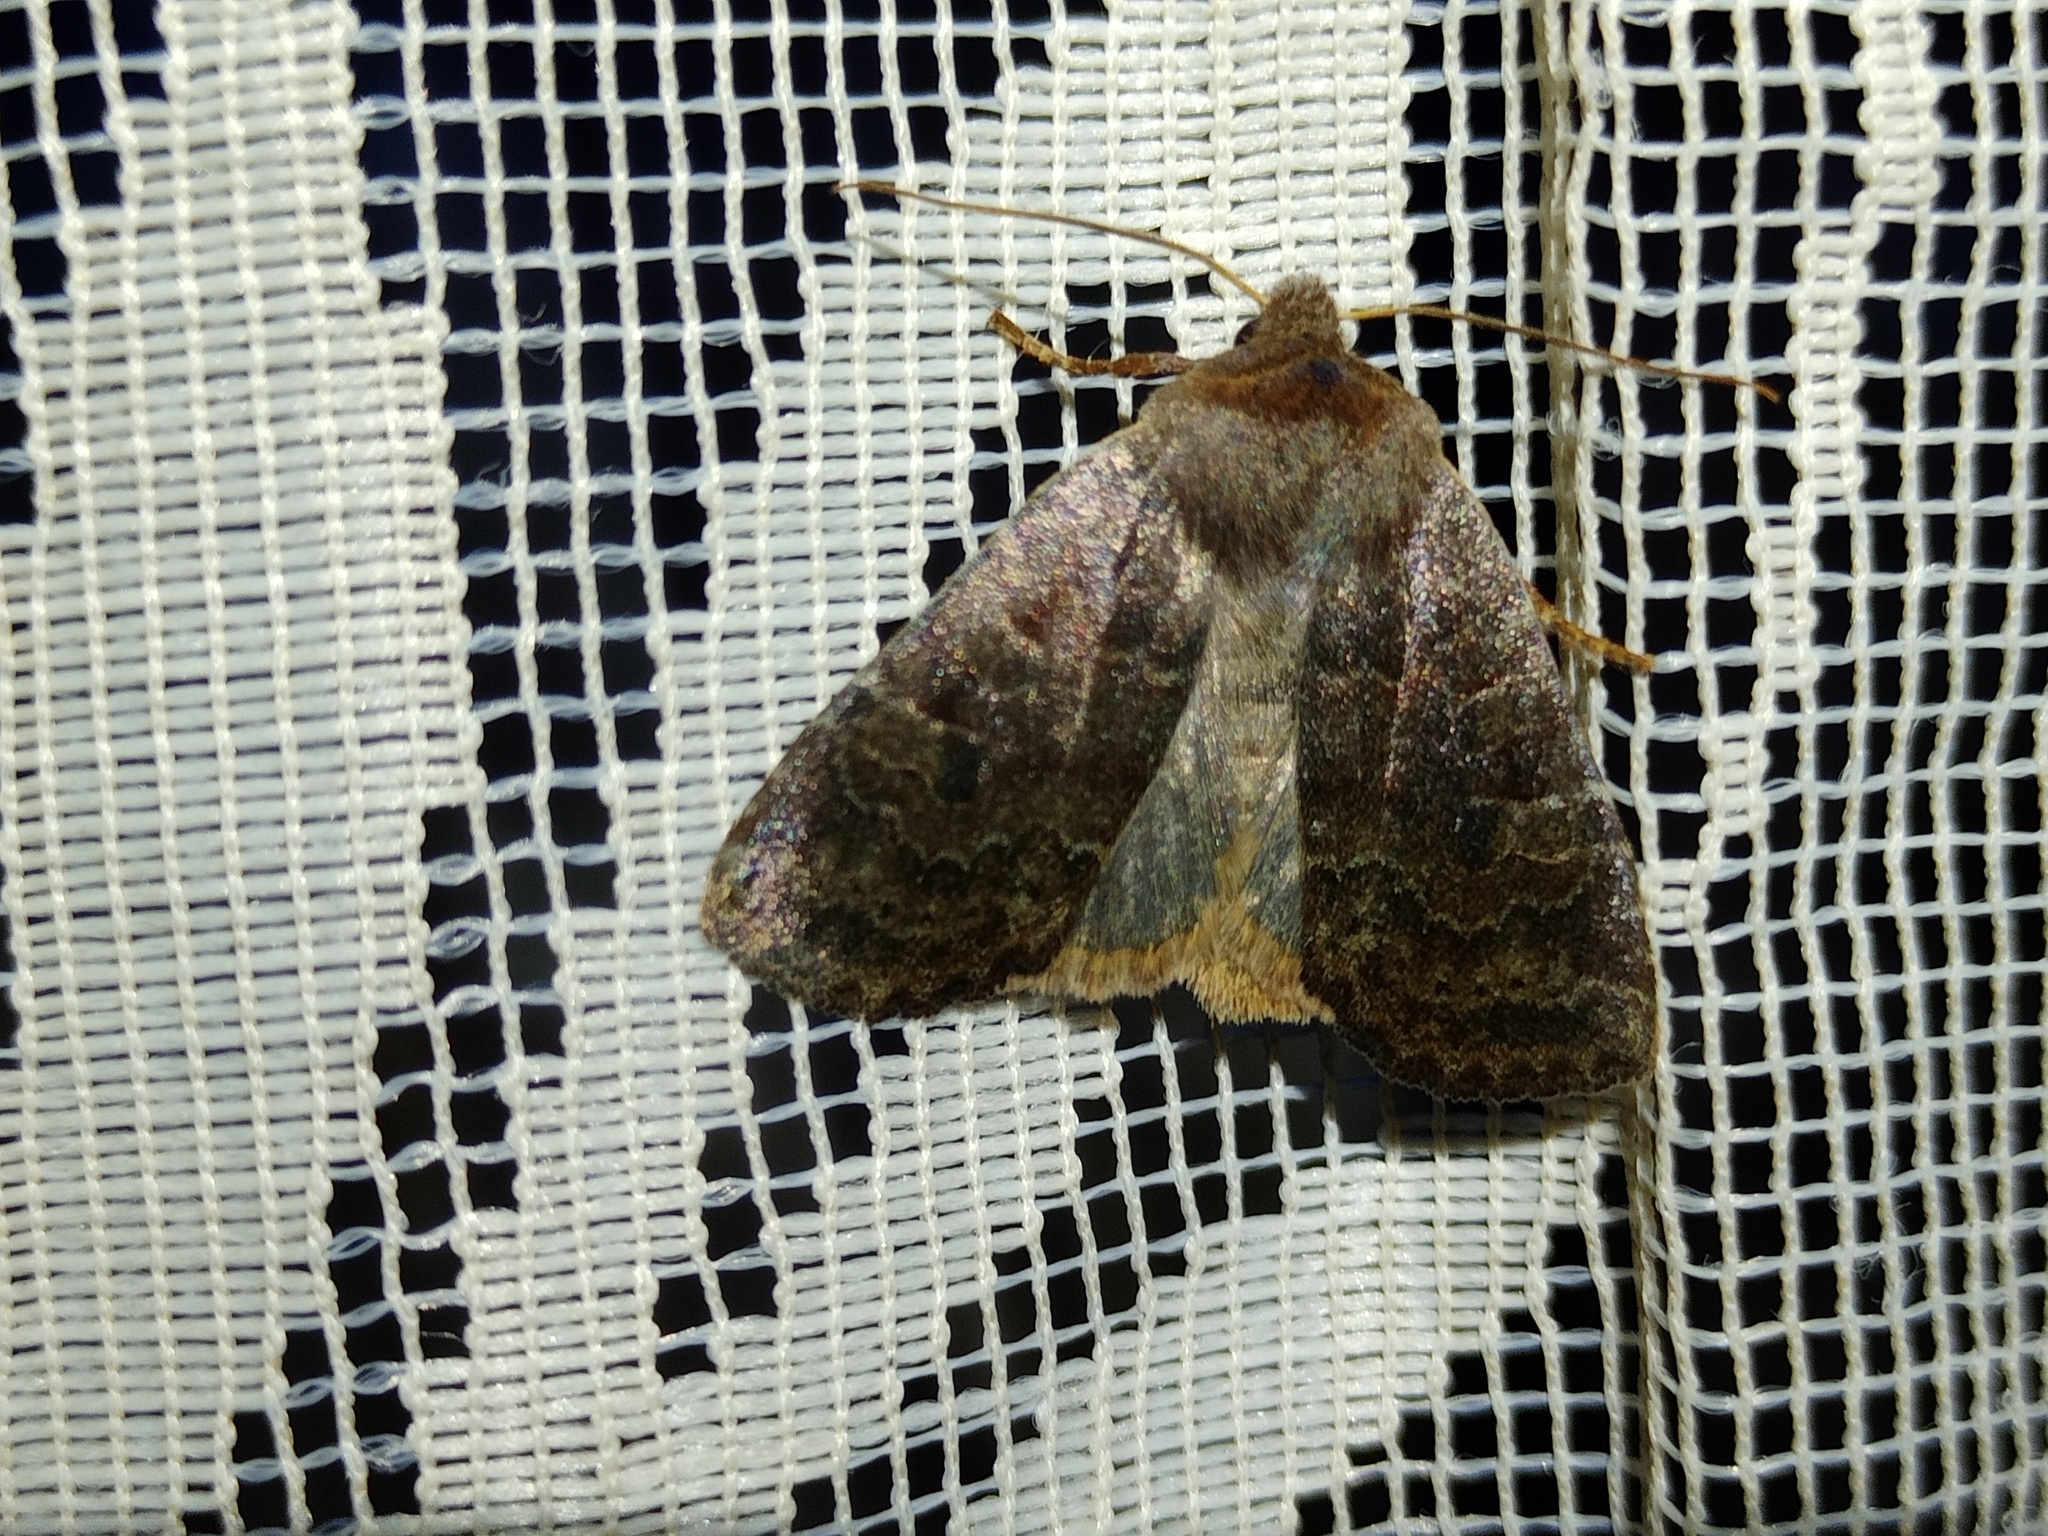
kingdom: Animalia
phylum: Arthropoda
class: Insecta
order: Lepidoptera
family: Noctuidae
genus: Conistra
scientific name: Conistra vaccinii
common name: Chestnut
